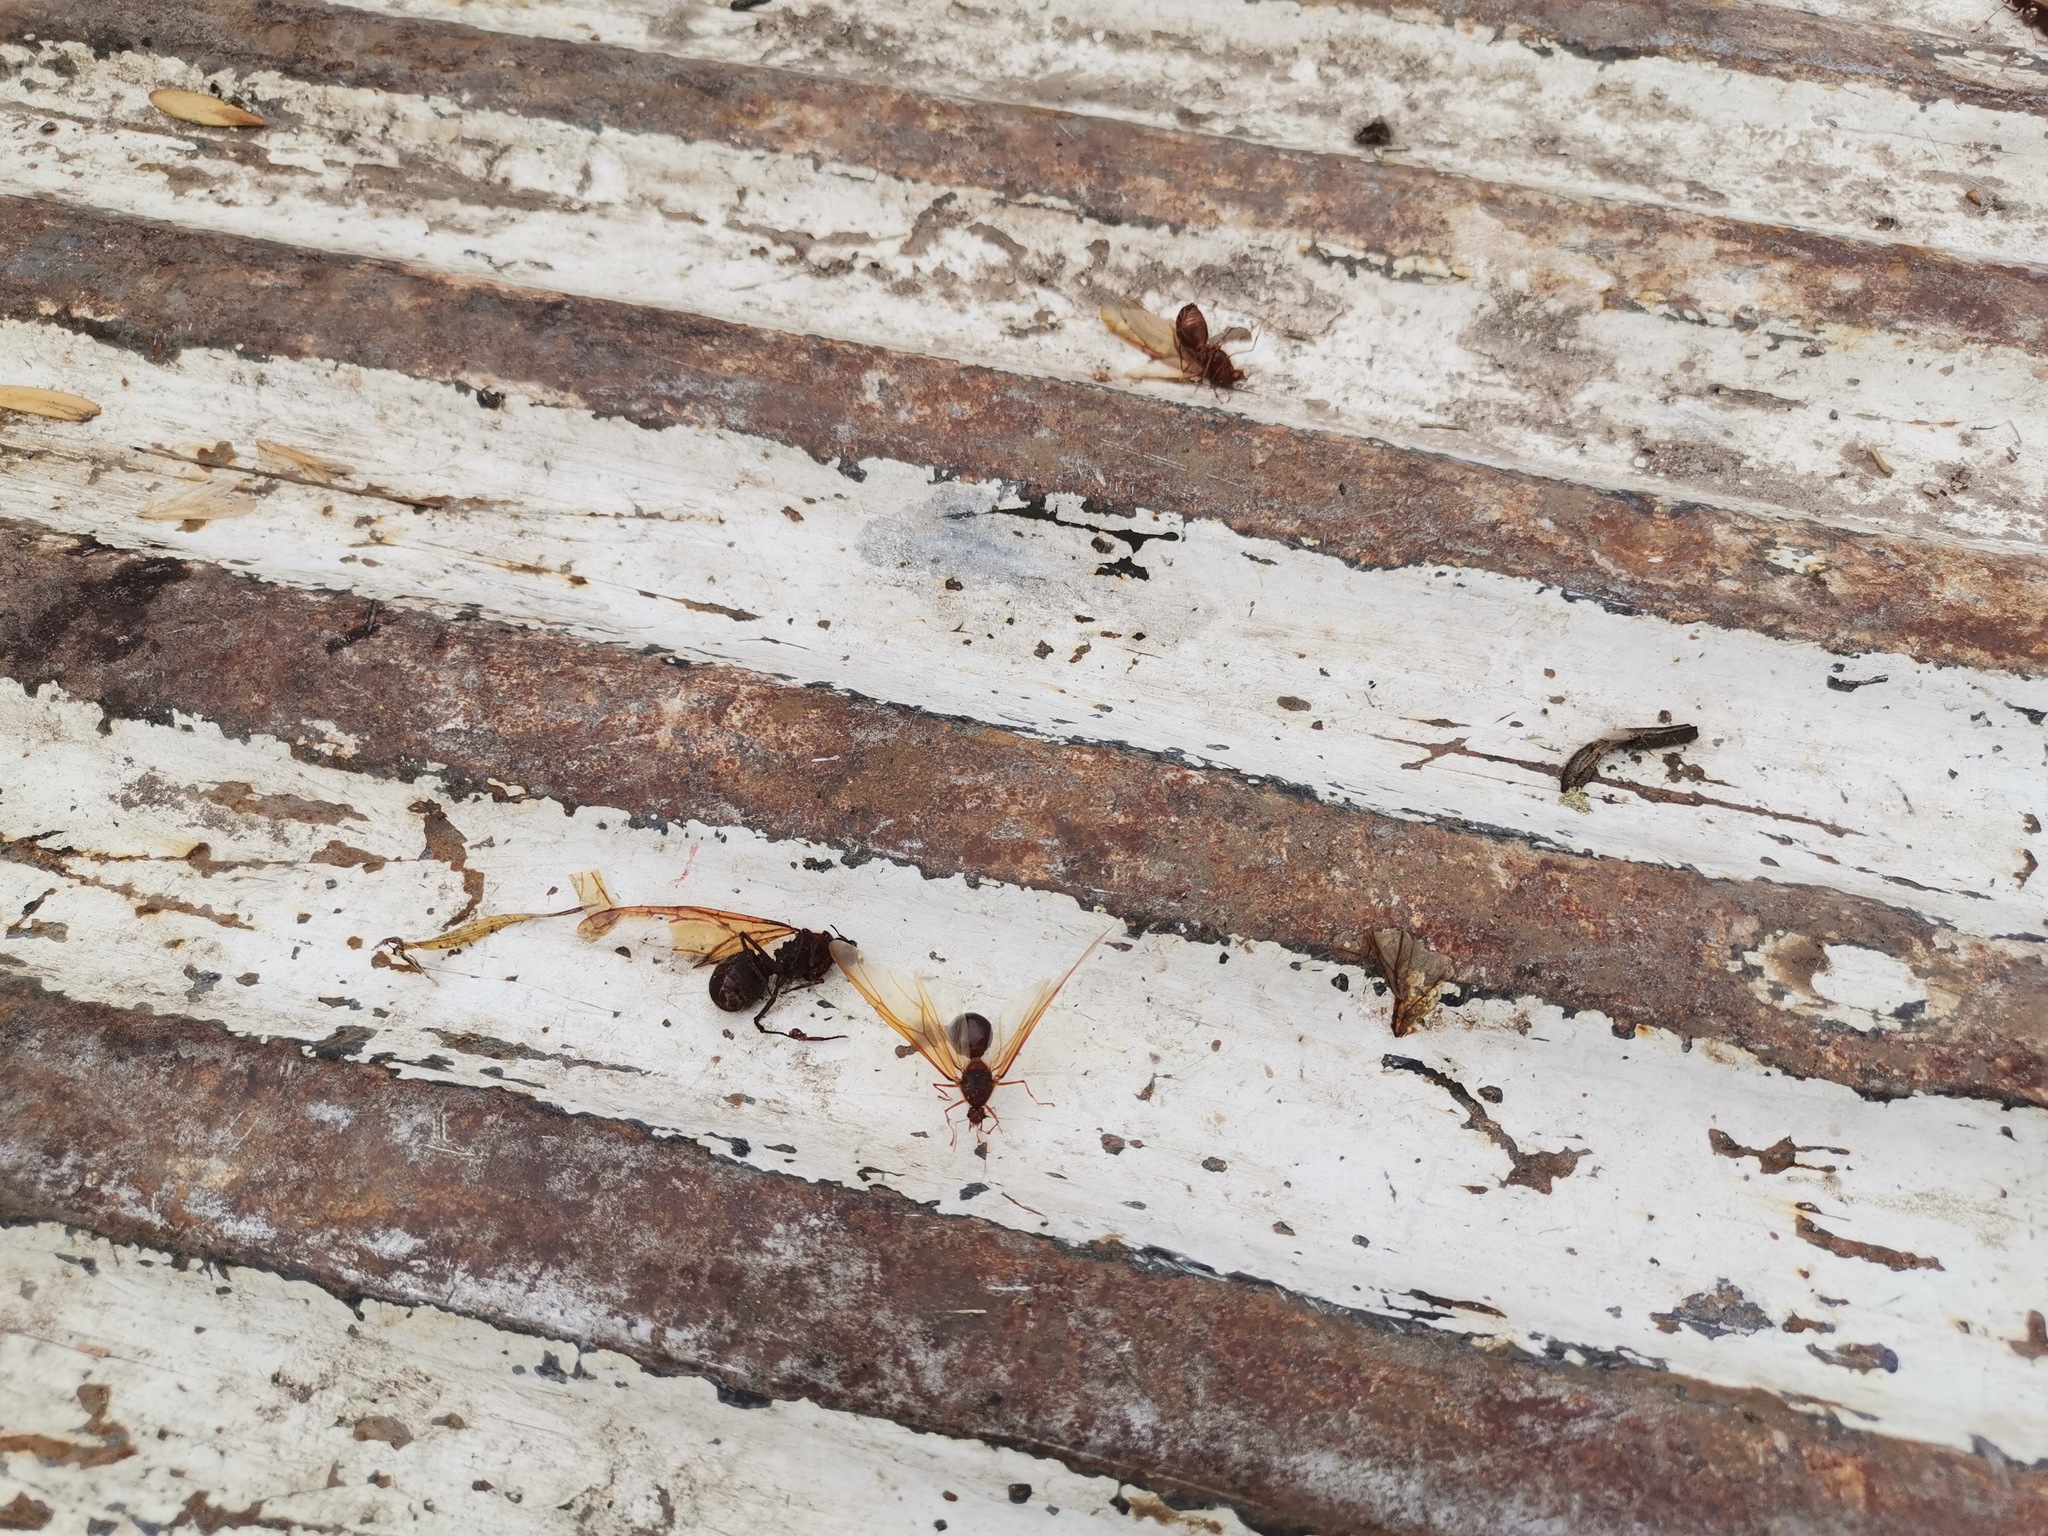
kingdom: Animalia
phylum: Arthropoda
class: Insecta
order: Hymenoptera
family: Formicidae
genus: Atta
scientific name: Atta mexicana
